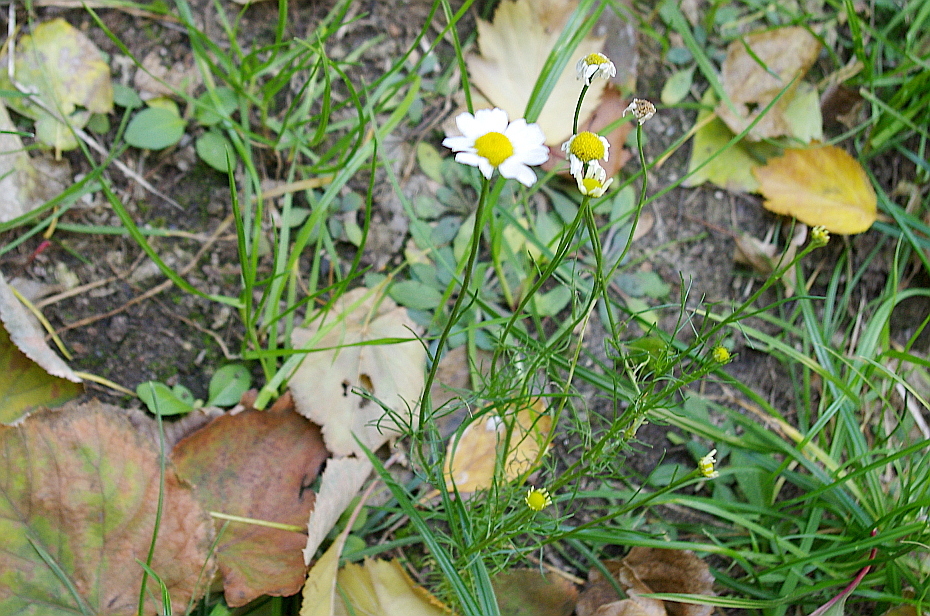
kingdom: Plantae
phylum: Tracheophyta
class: Magnoliopsida
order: Asterales
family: Asteraceae
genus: Tripleurospermum
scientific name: Tripleurospermum inodorum
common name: Scentless mayweed
